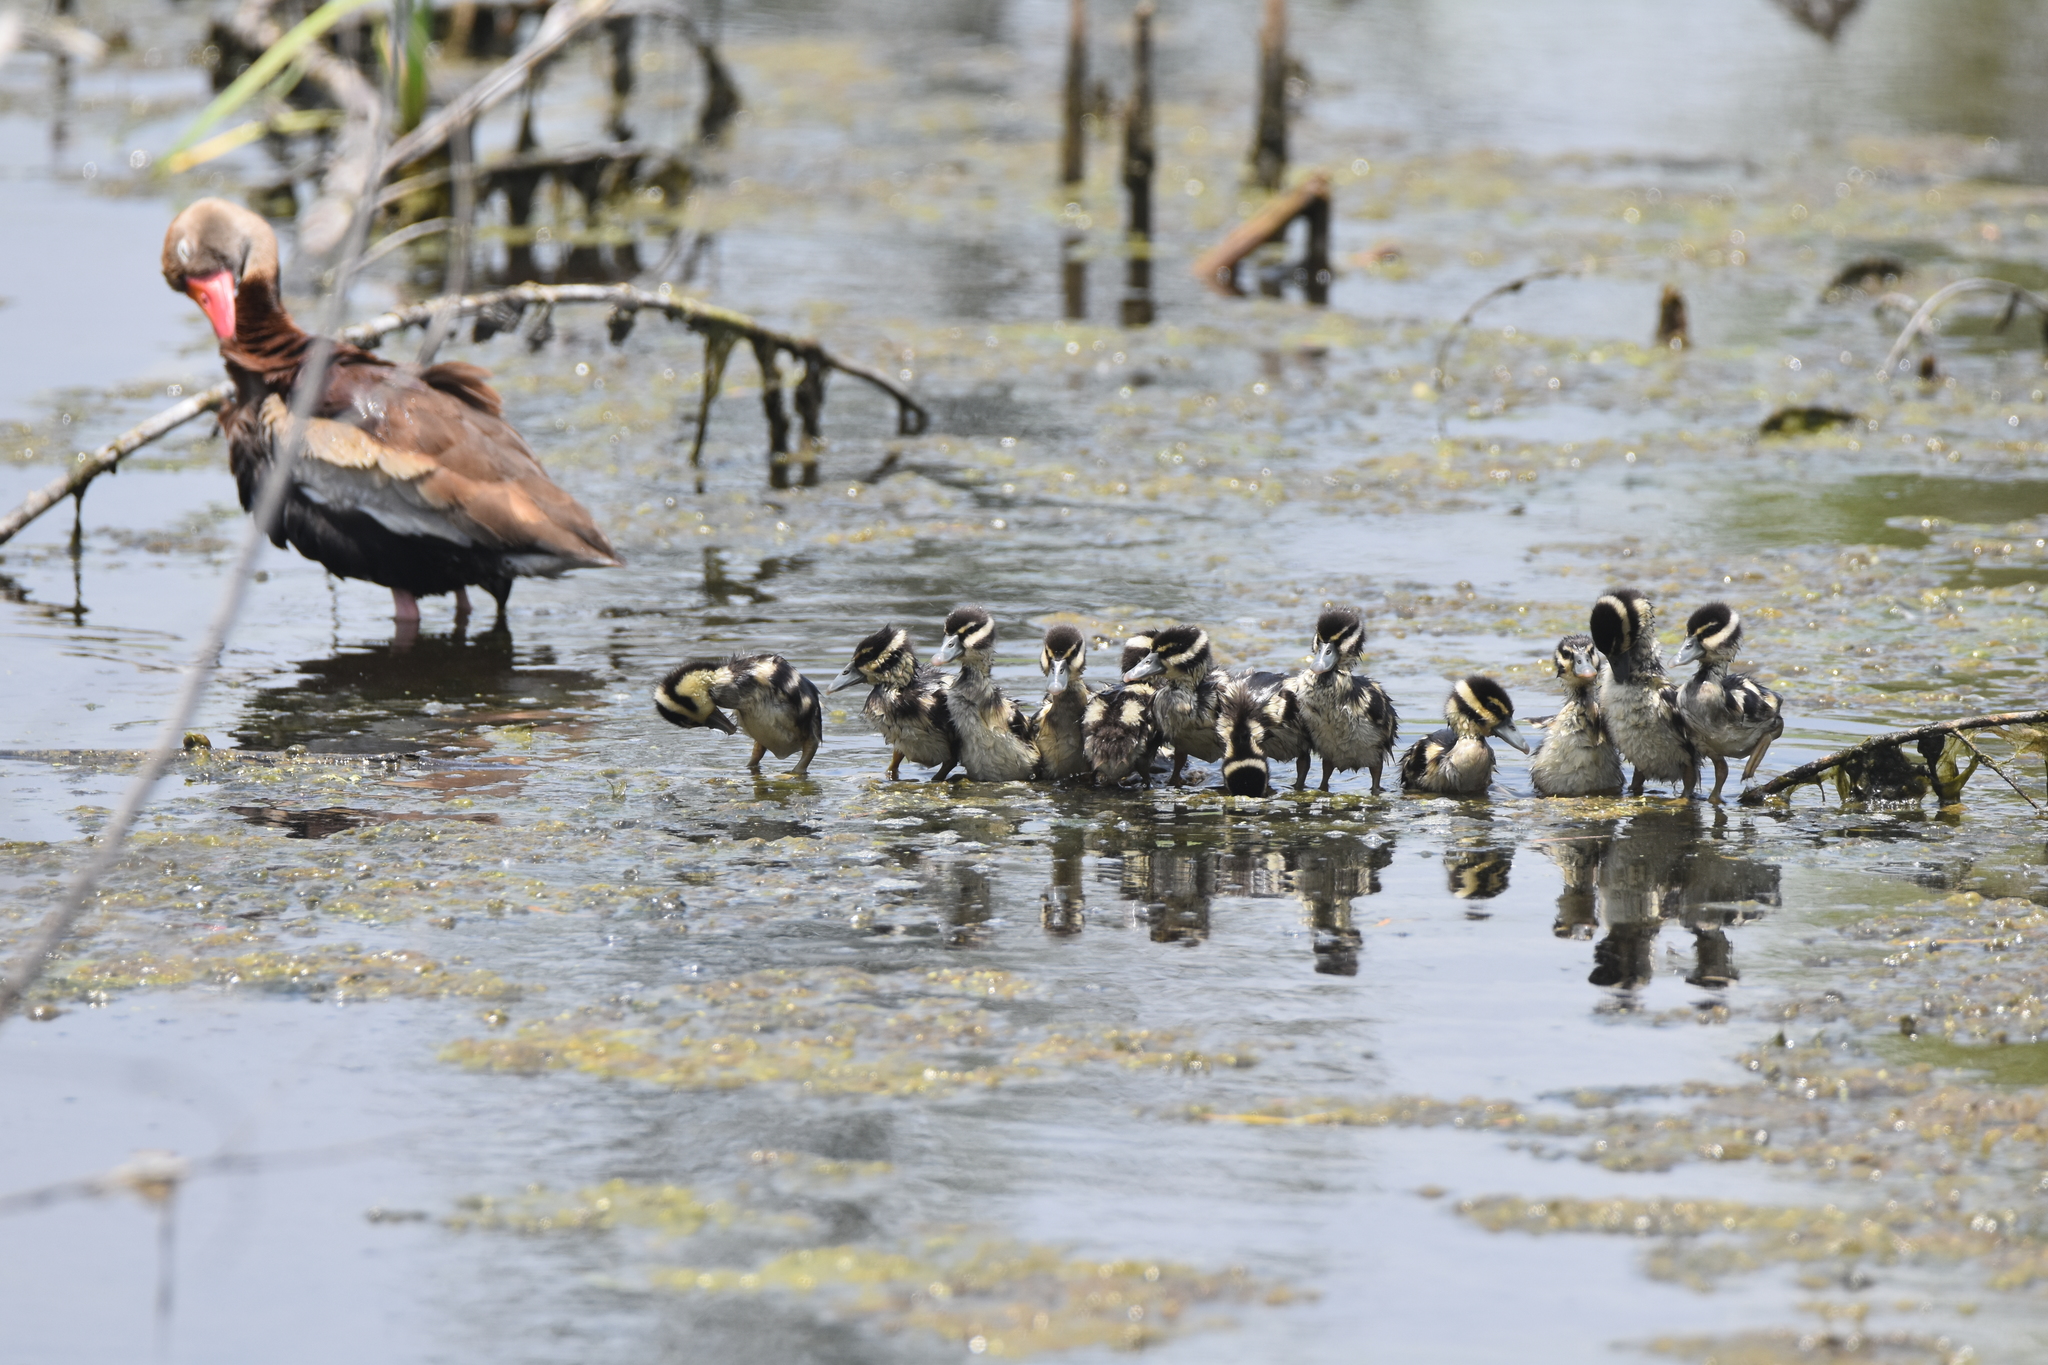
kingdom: Animalia
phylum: Chordata
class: Aves
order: Anseriformes
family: Anatidae
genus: Dendrocygna
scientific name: Dendrocygna autumnalis
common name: Black-bellied whistling duck
